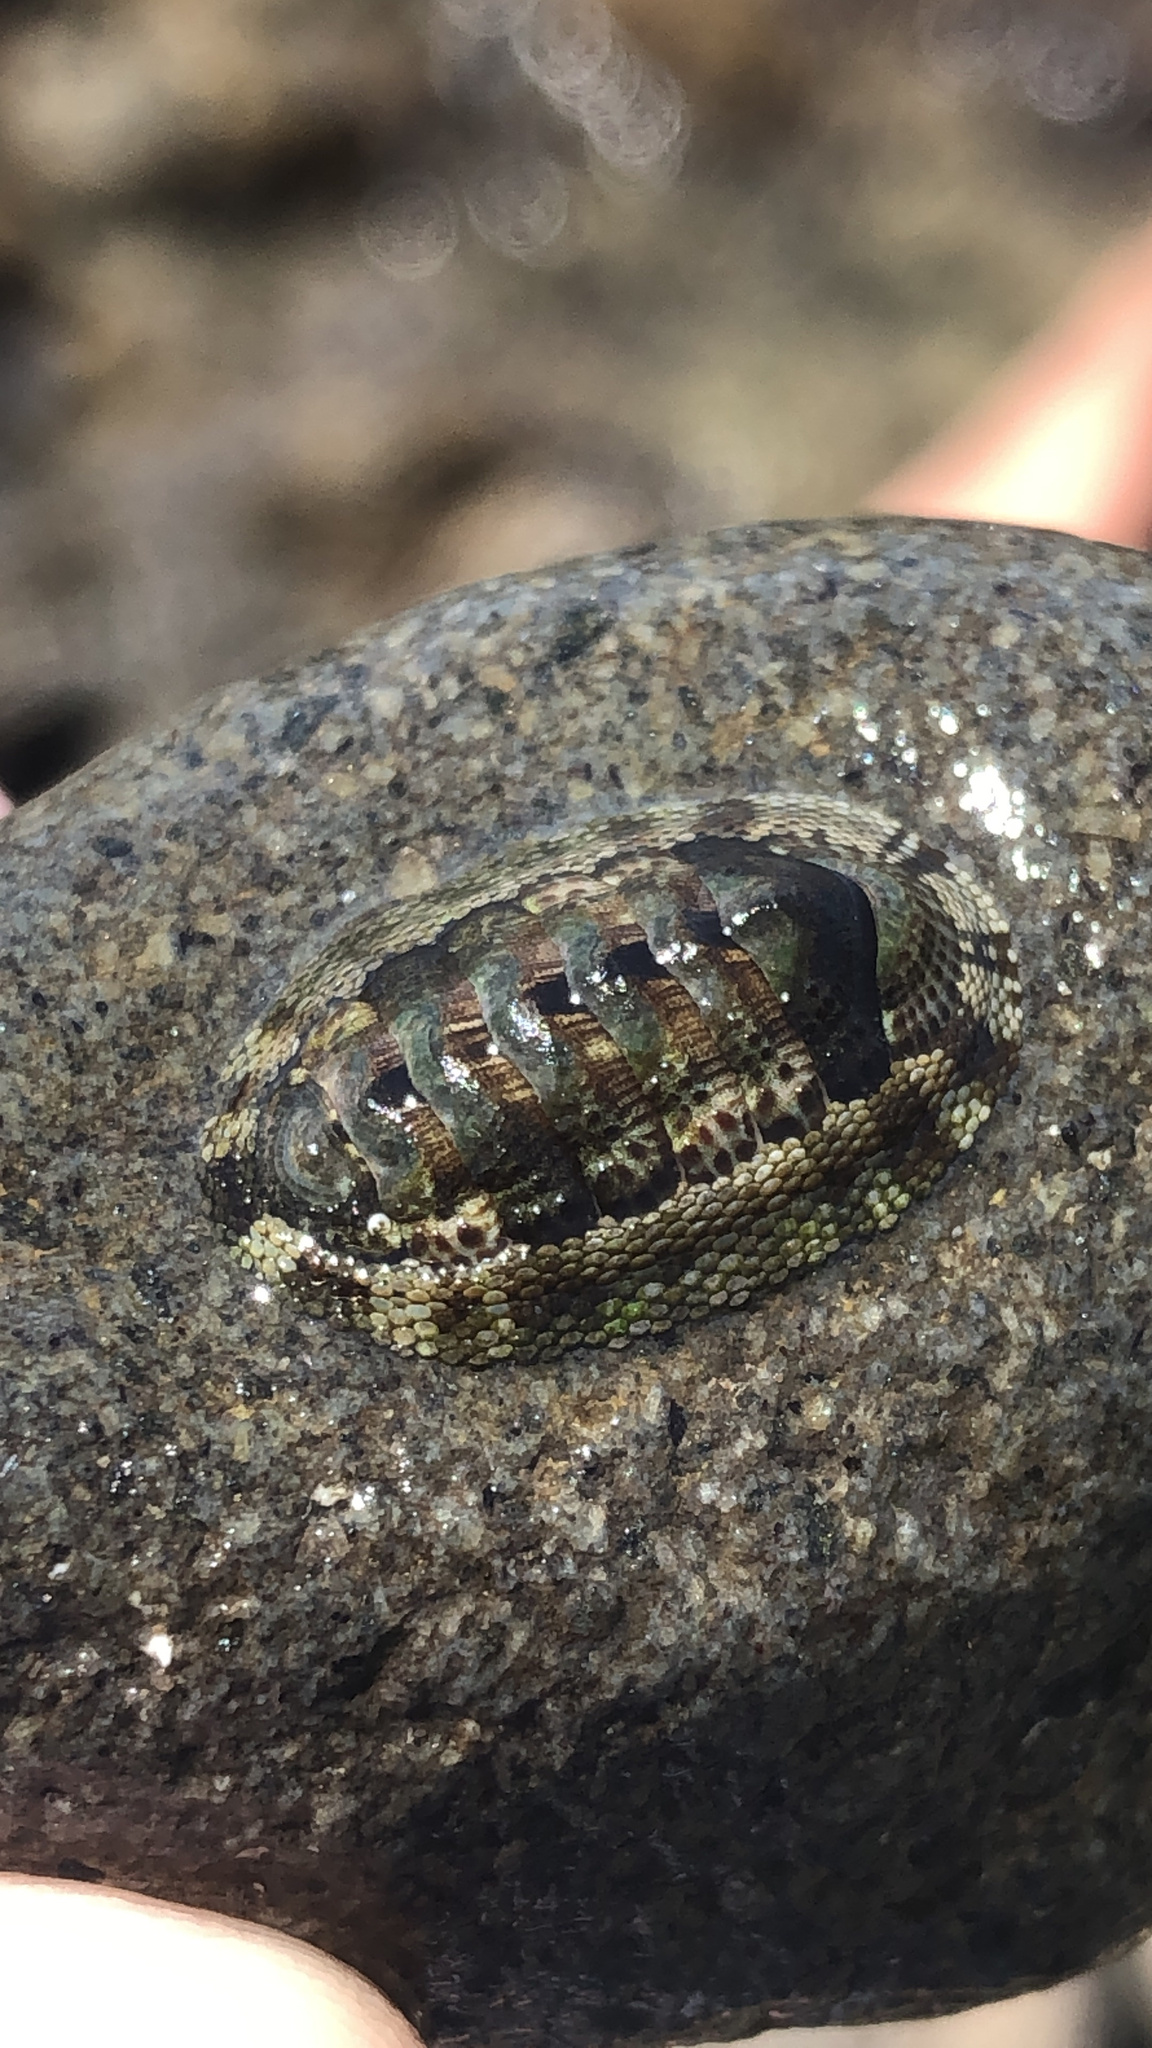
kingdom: Animalia
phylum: Mollusca
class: Polyplacophora
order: Chitonida
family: Chitonidae
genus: Sypharochiton
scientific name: Sypharochiton pelliserpentis
